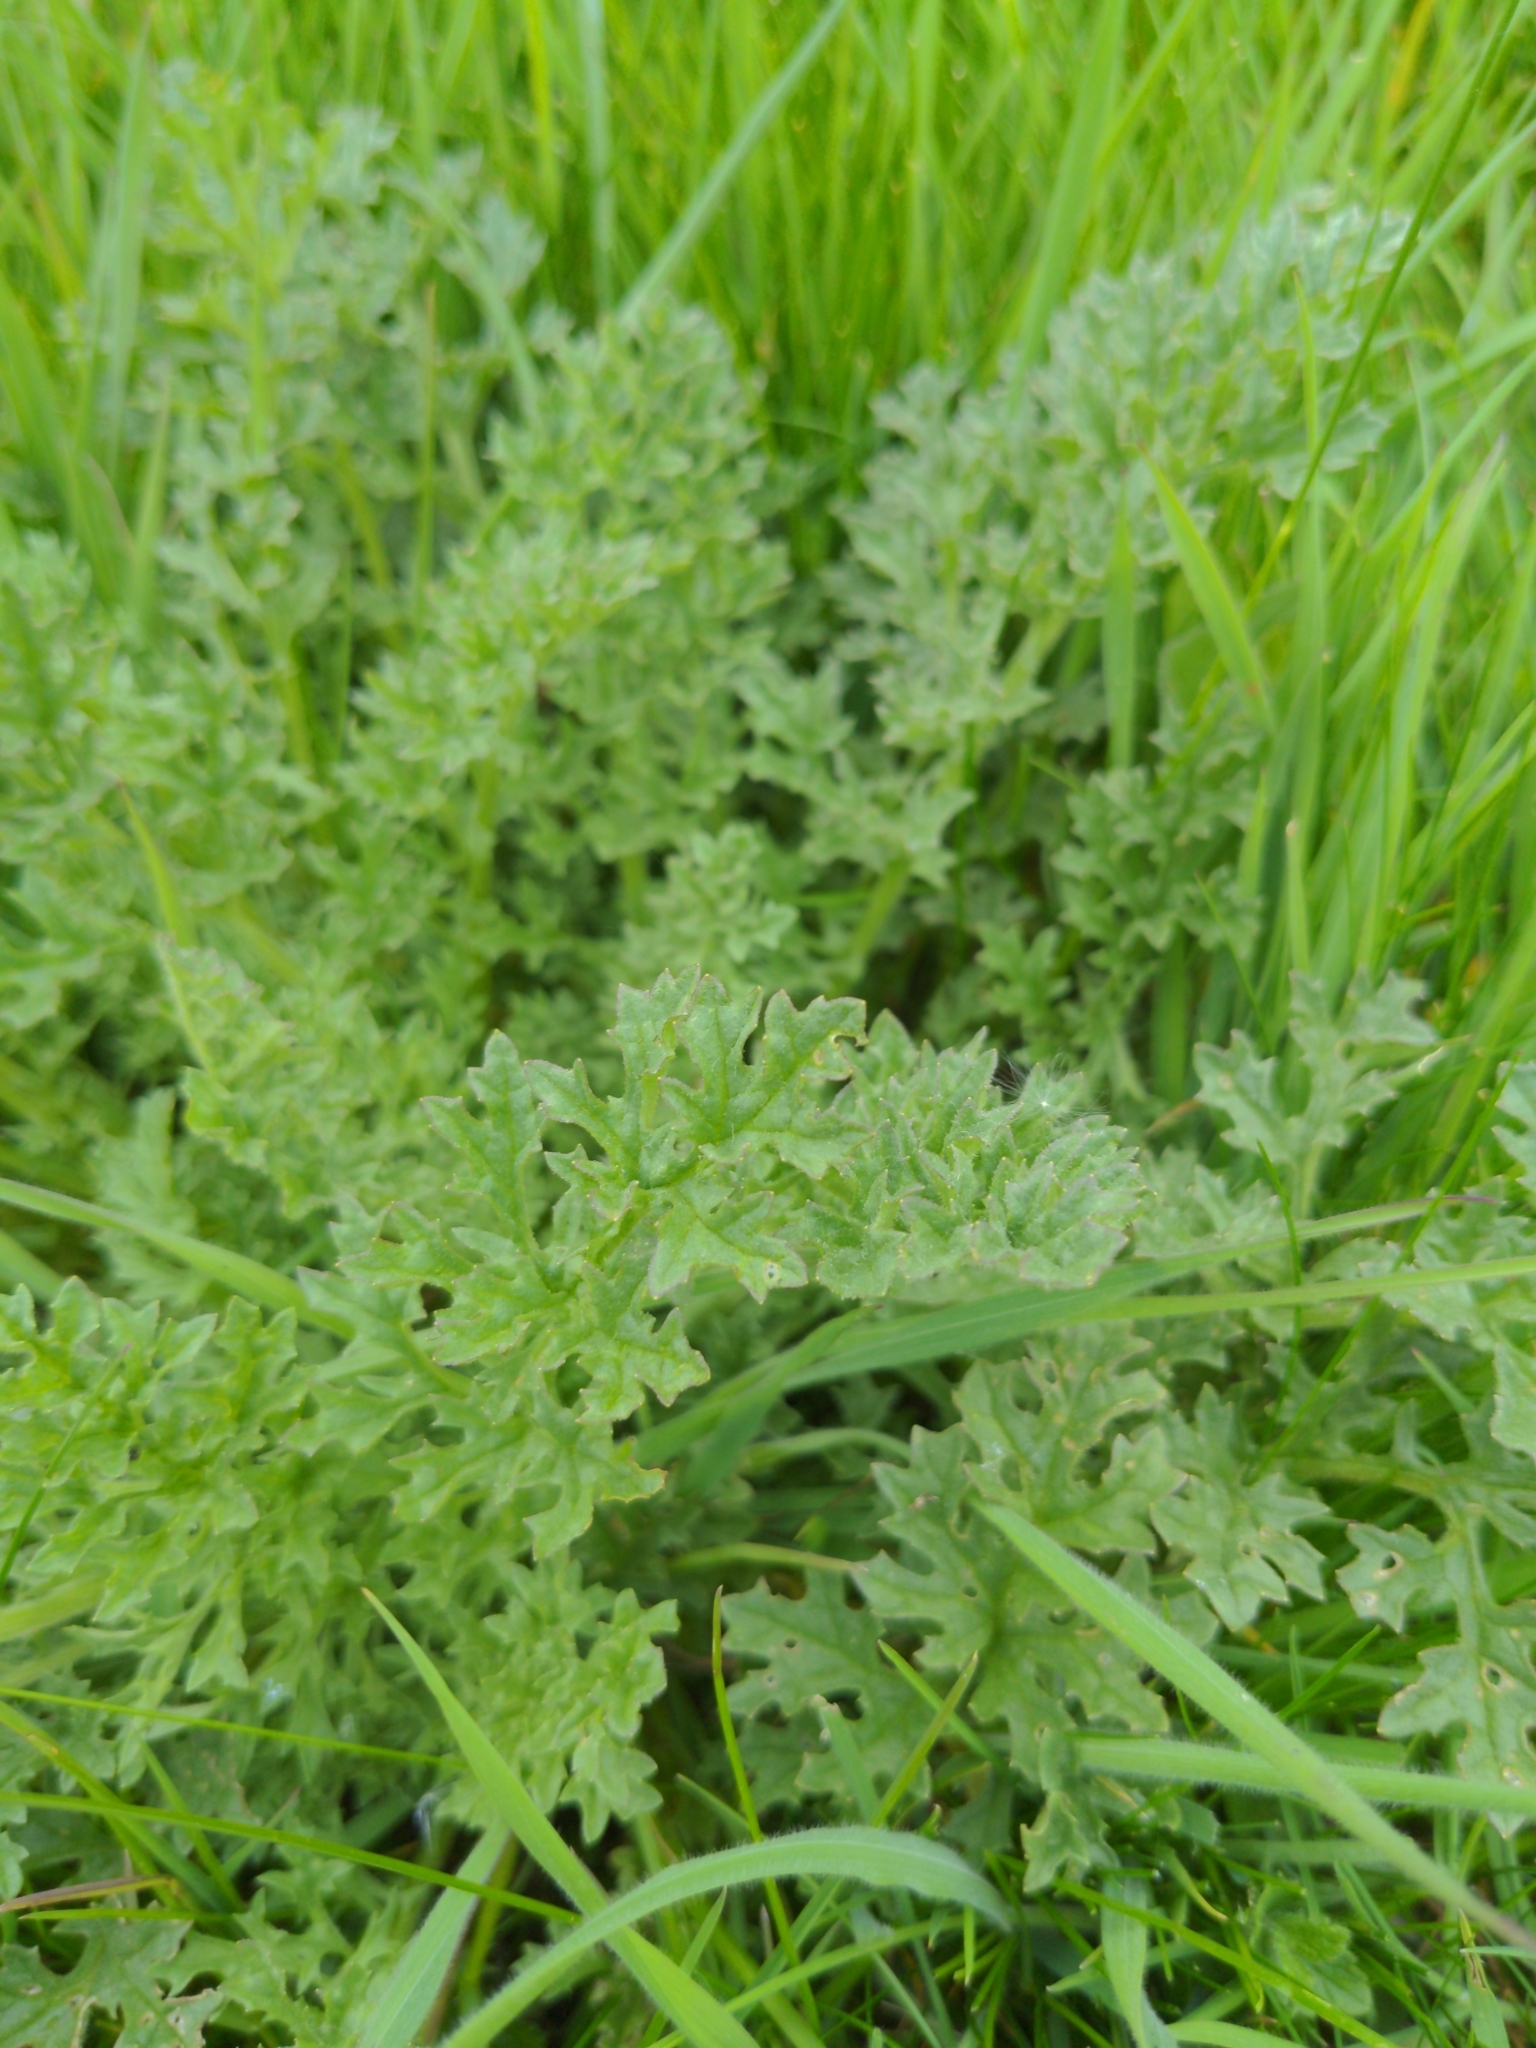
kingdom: Plantae
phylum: Tracheophyta
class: Magnoliopsida
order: Asterales
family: Asteraceae
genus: Jacobaea
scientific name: Jacobaea vulgaris
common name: Stinking willie
